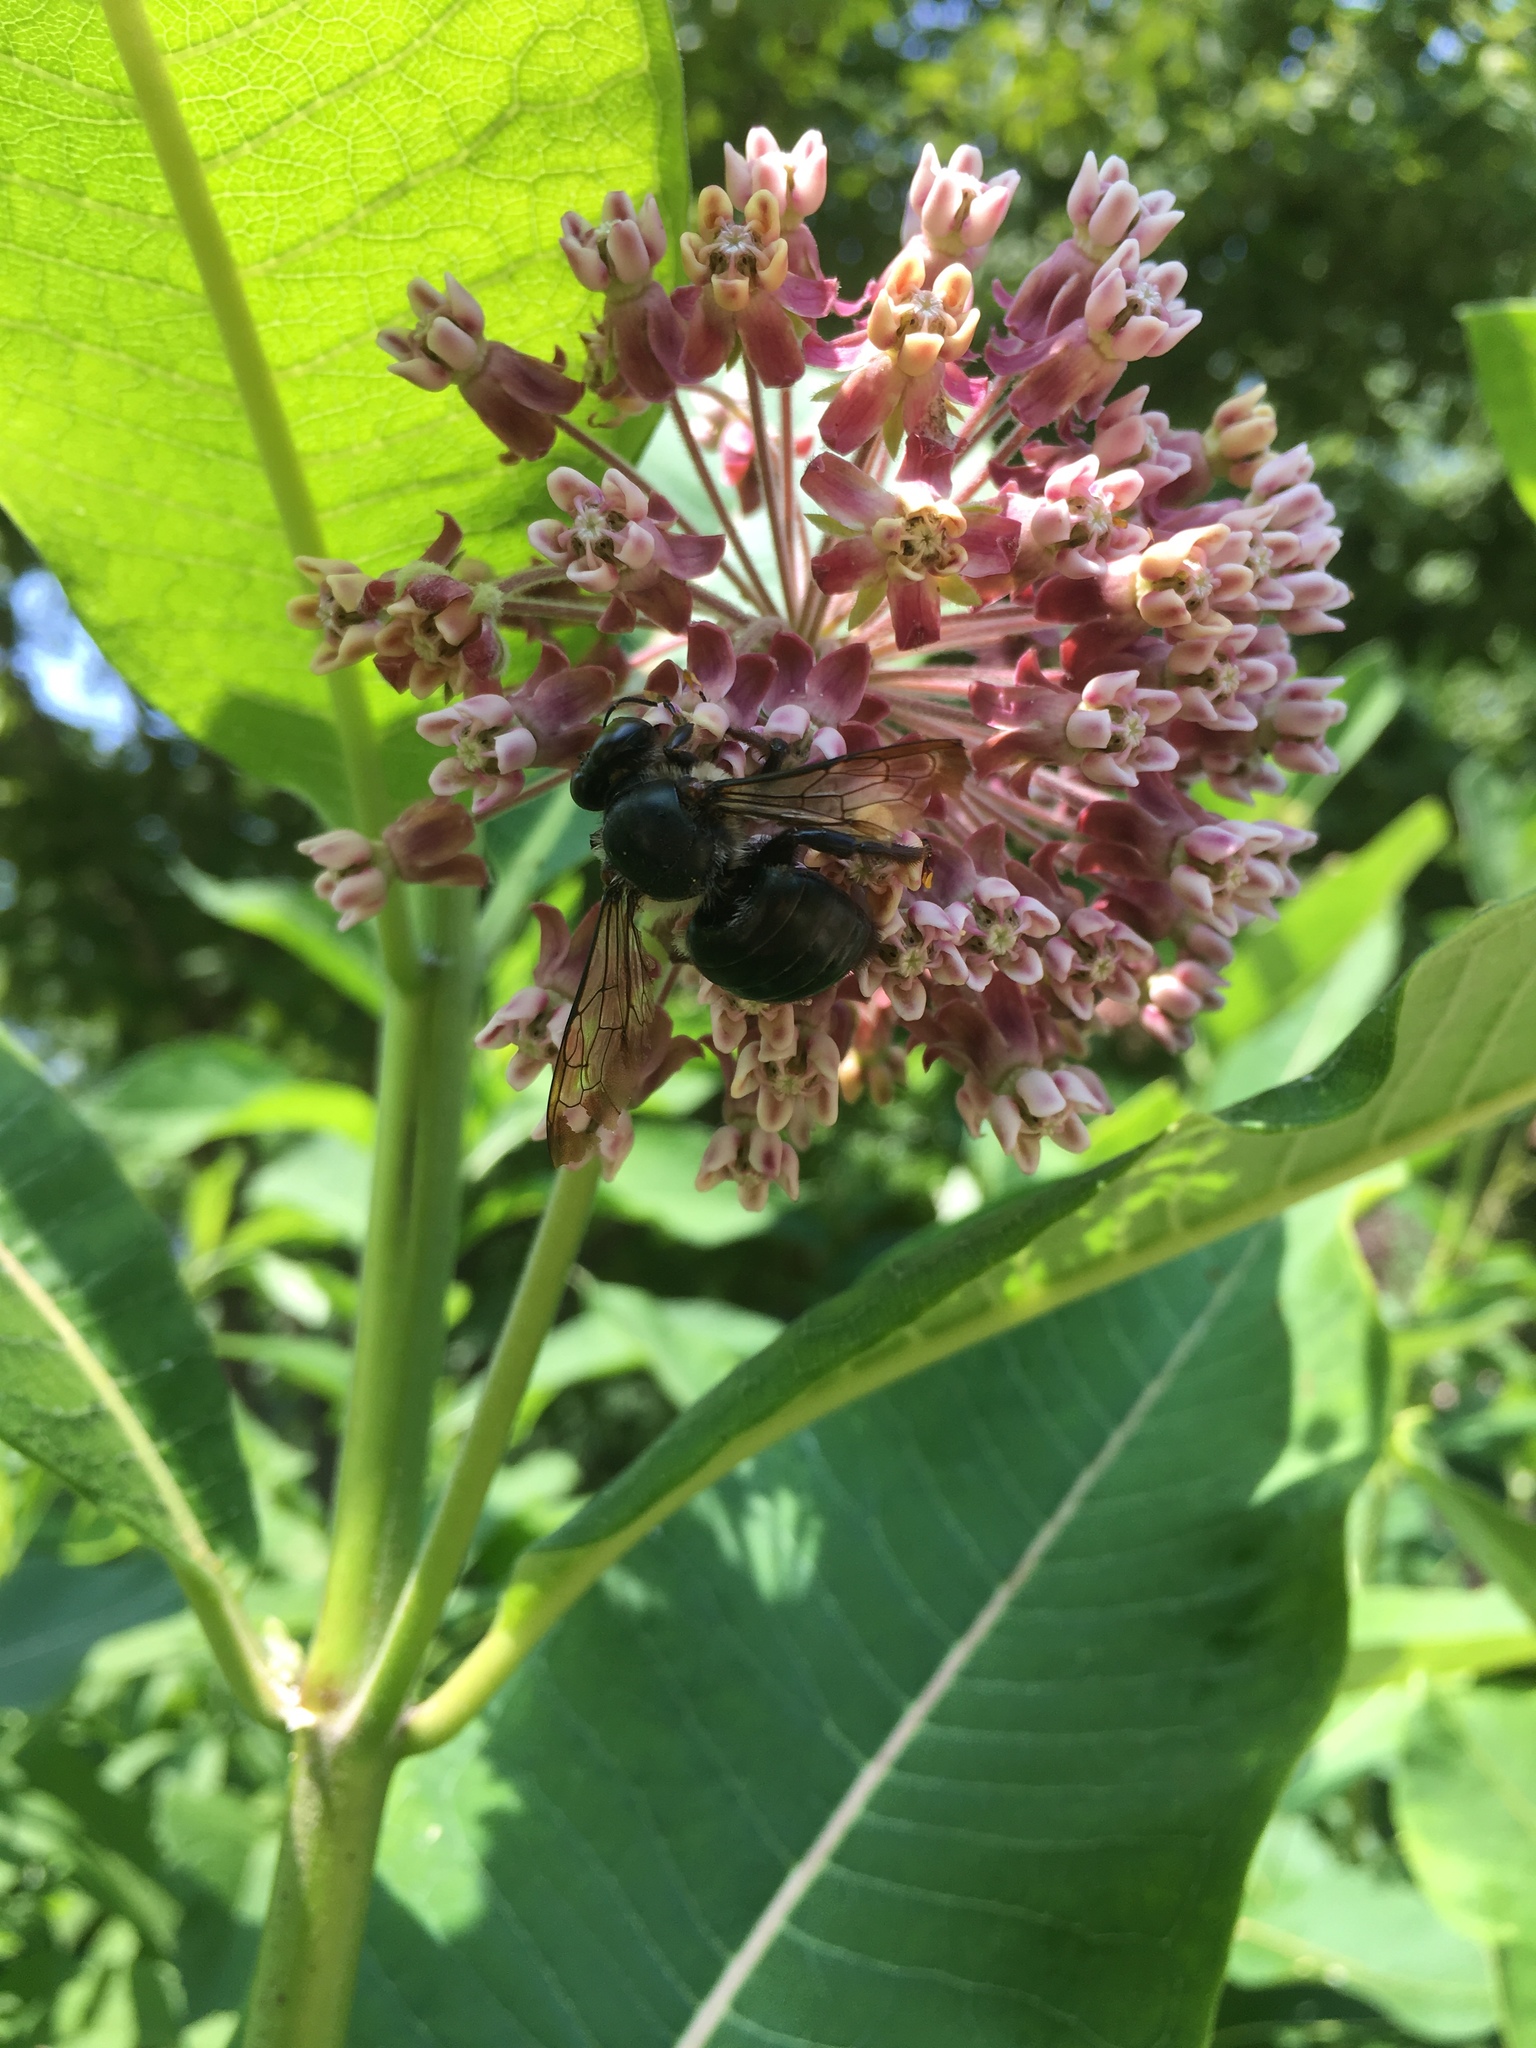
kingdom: Animalia
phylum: Arthropoda
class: Insecta
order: Hymenoptera
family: Apidae
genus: Xylocopa
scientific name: Xylocopa virginica
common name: Carpenter bee
